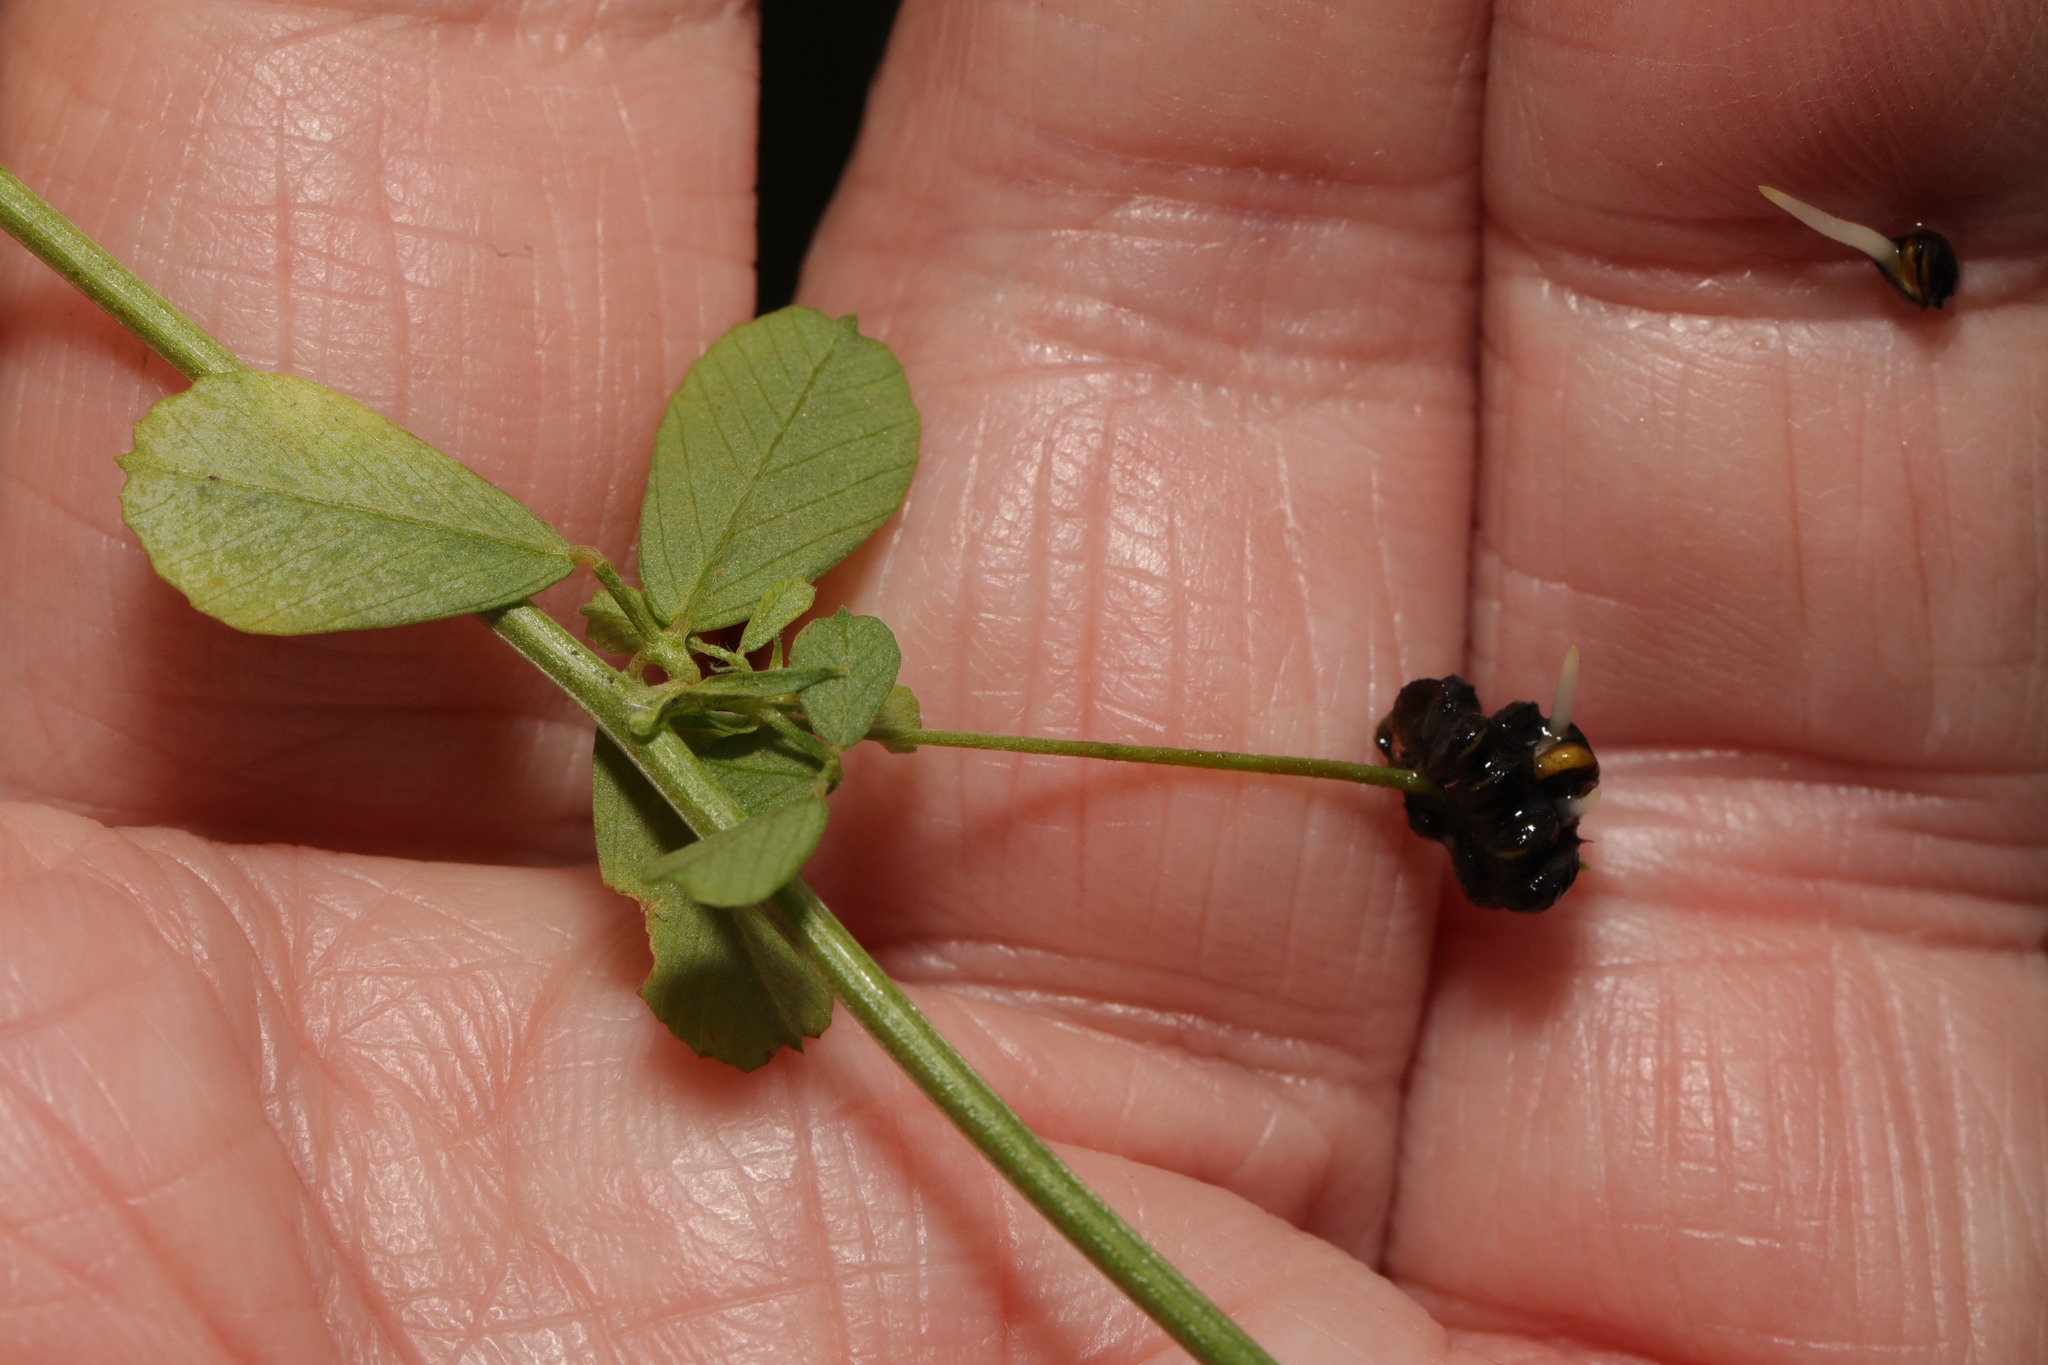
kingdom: Plantae
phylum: Tracheophyta
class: Magnoliopsida
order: Fabales
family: Fabaceae
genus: Medicago
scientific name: Medicago lupulina
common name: Black medick
